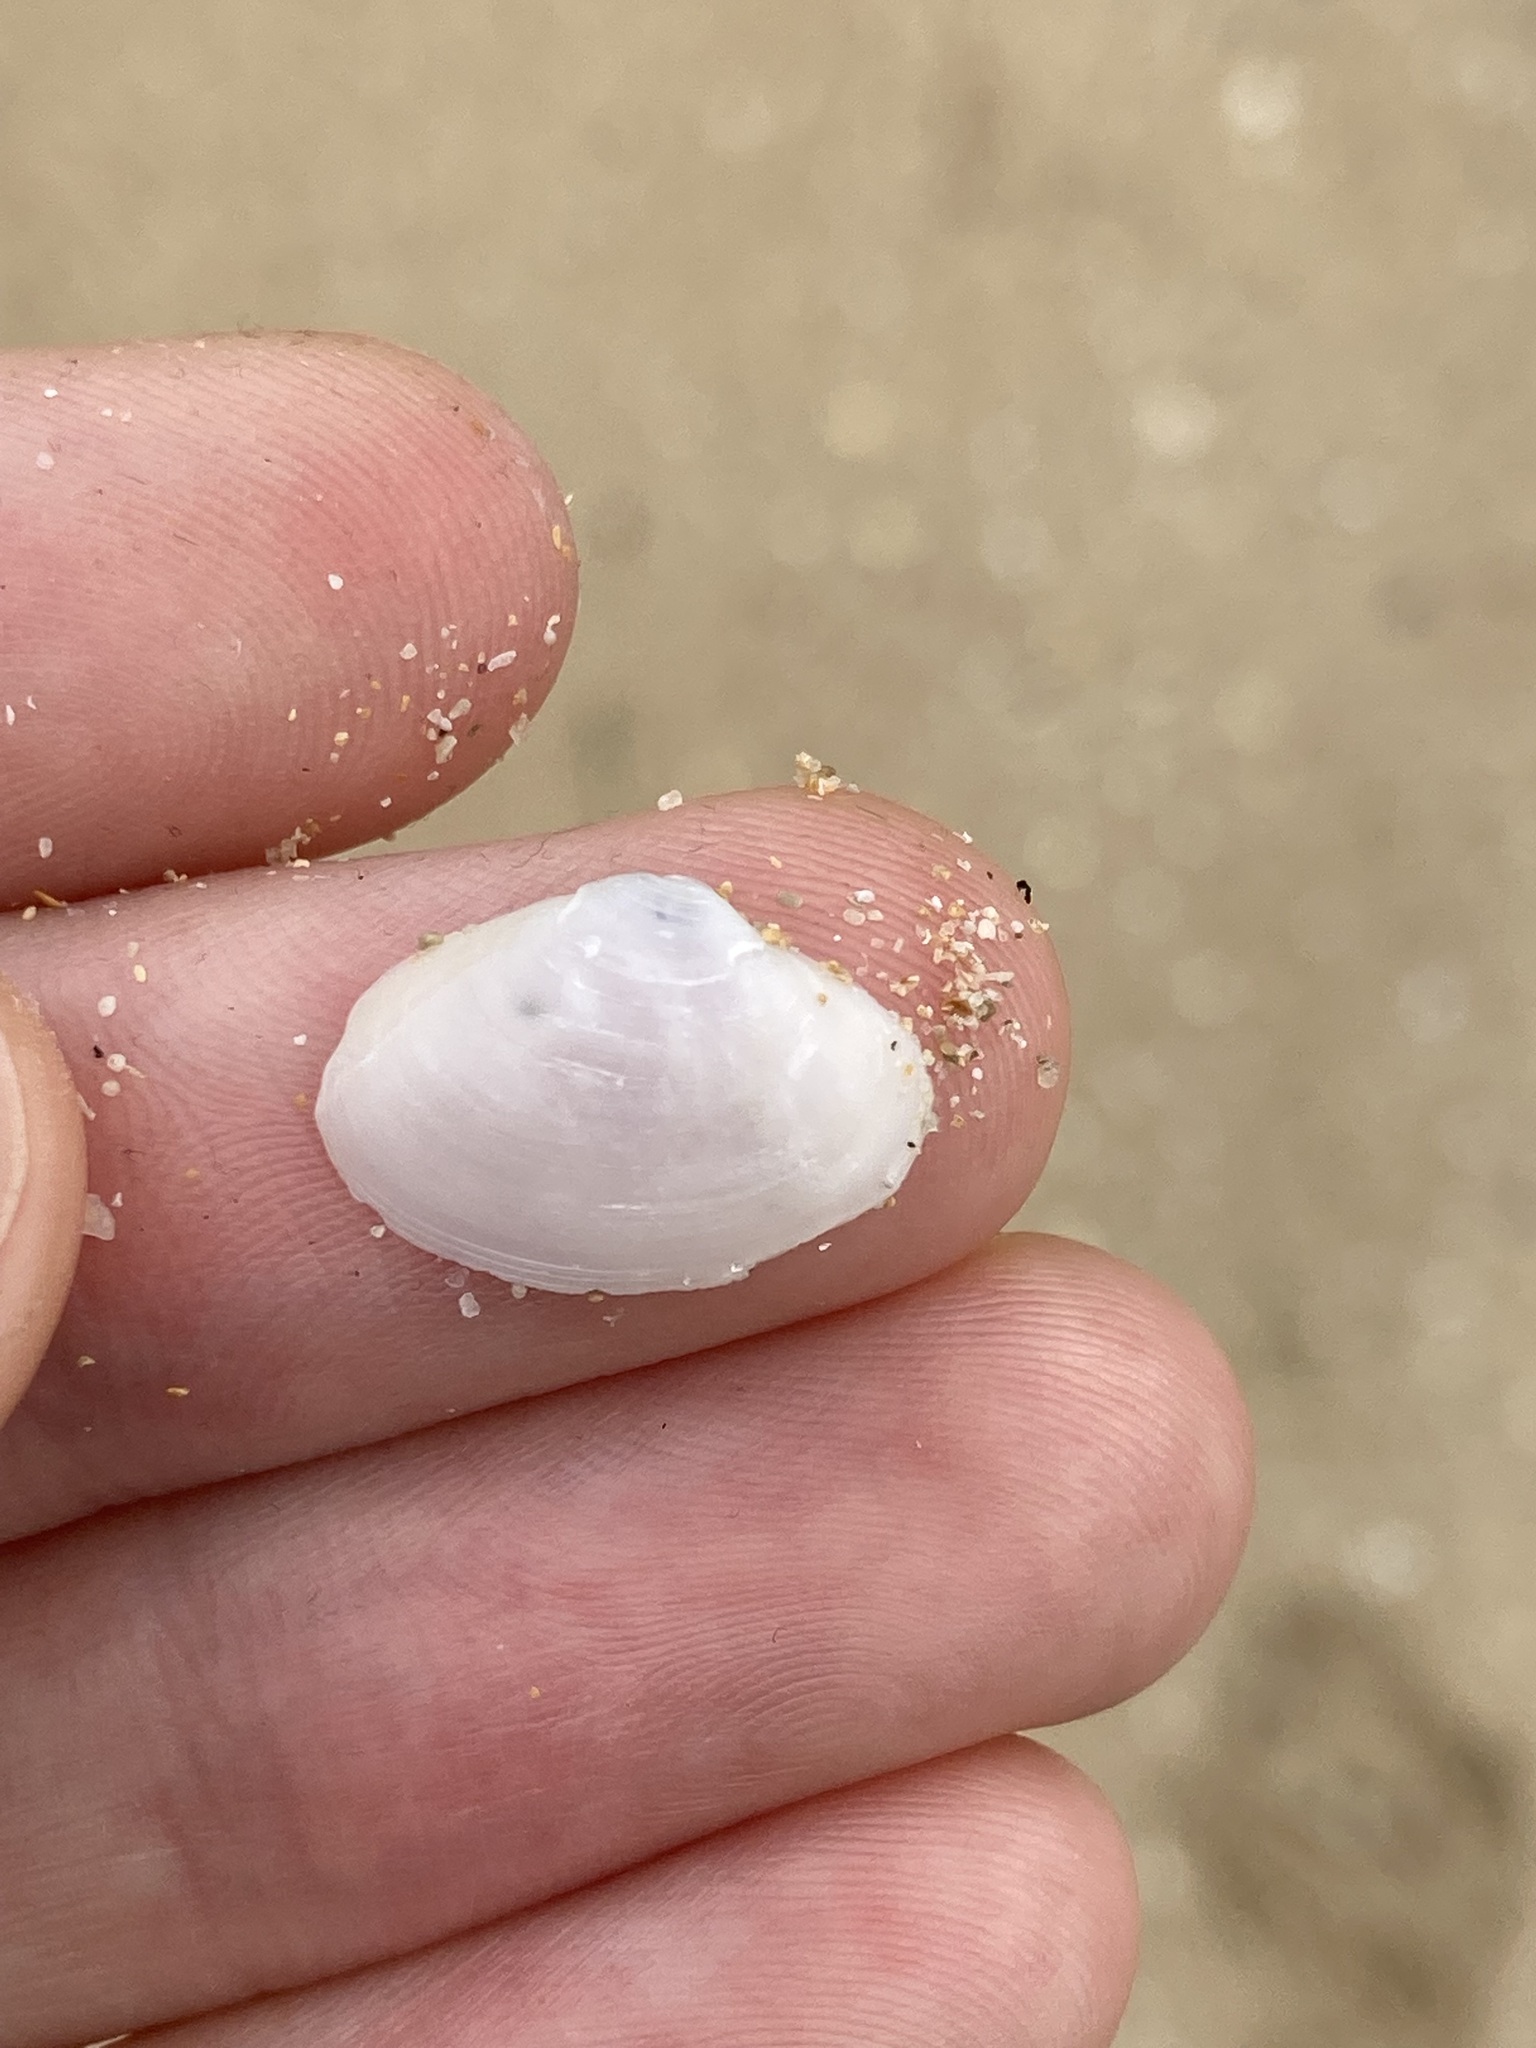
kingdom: Animalia
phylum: Mollusca
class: Bivalvia
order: Venerida
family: Mactridae
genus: Mactrotoma
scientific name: Mactrotoma antecedens
